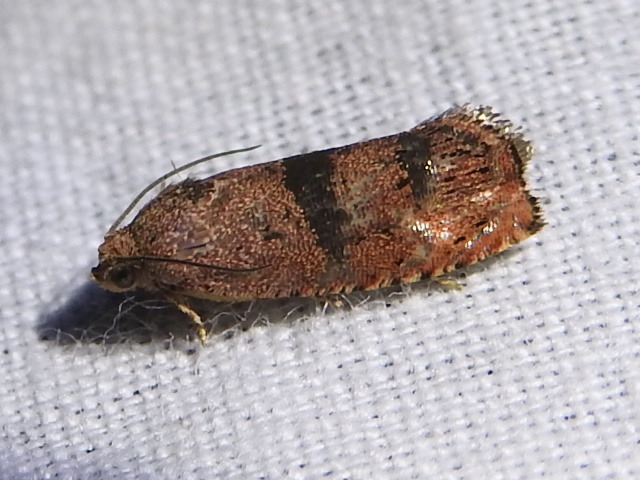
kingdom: Animalia
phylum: Arthropoda
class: Insecta
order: Lepidoptera
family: Tortricidae
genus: Cydia
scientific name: Cydia latiferreana
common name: Filbertworm moth
